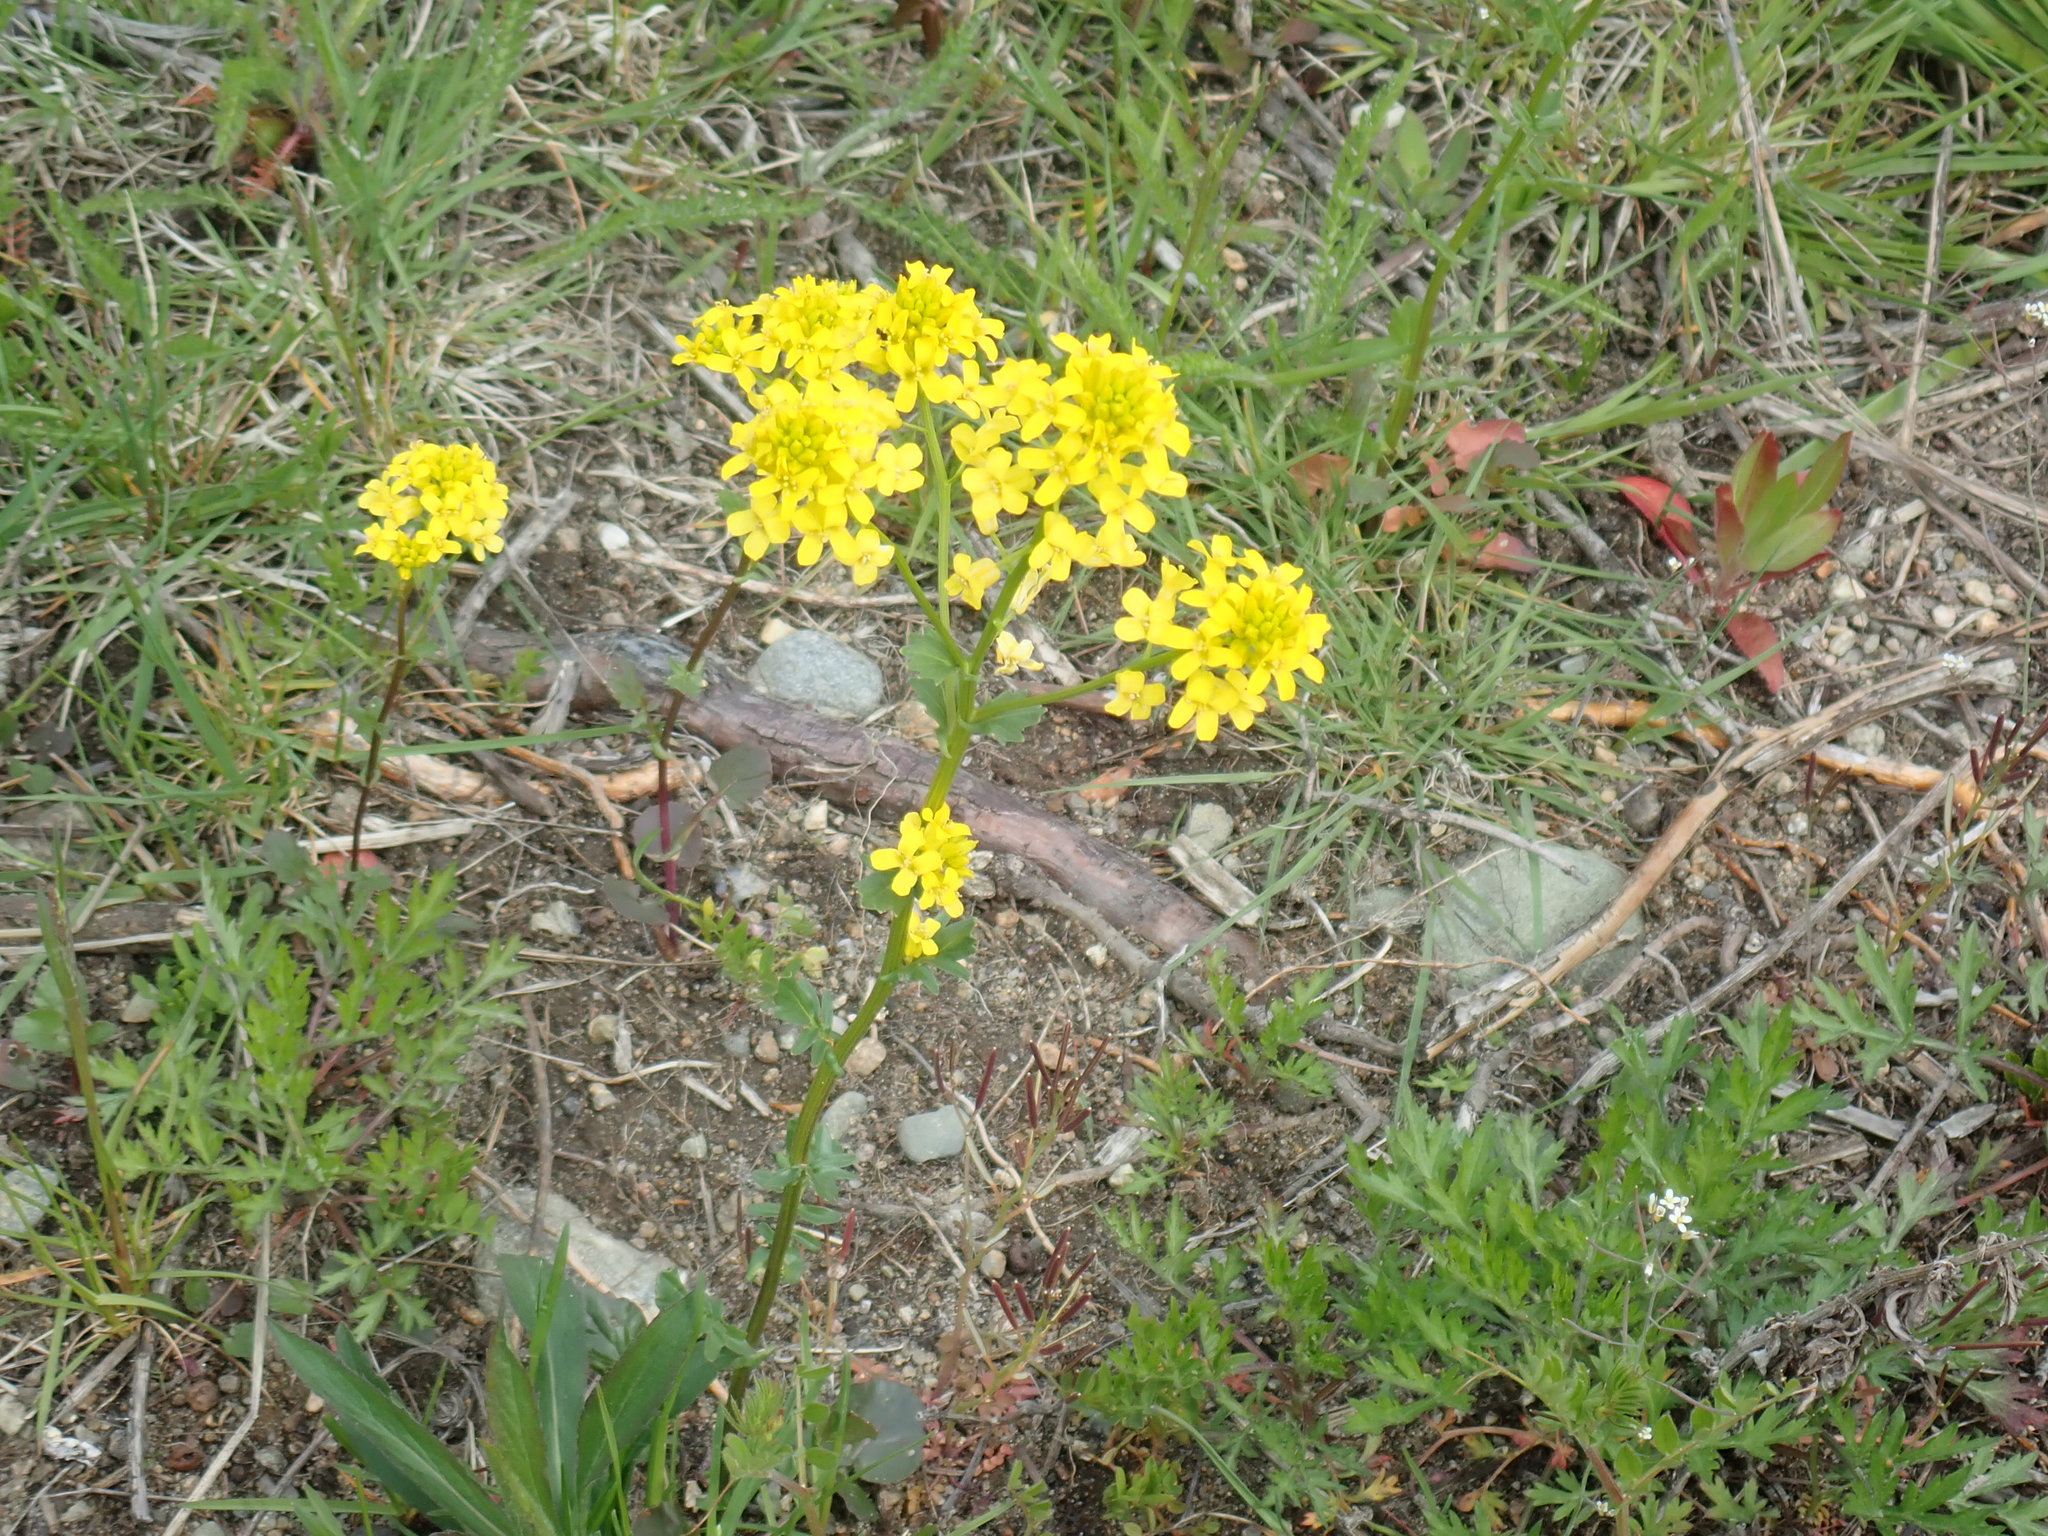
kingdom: Plantae
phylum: Tracheophyta
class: Magnoliopsida
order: Brassicales
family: Brassicaceae
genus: Barbarea
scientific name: Barbarea vulgaris
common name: Cressy-greens
